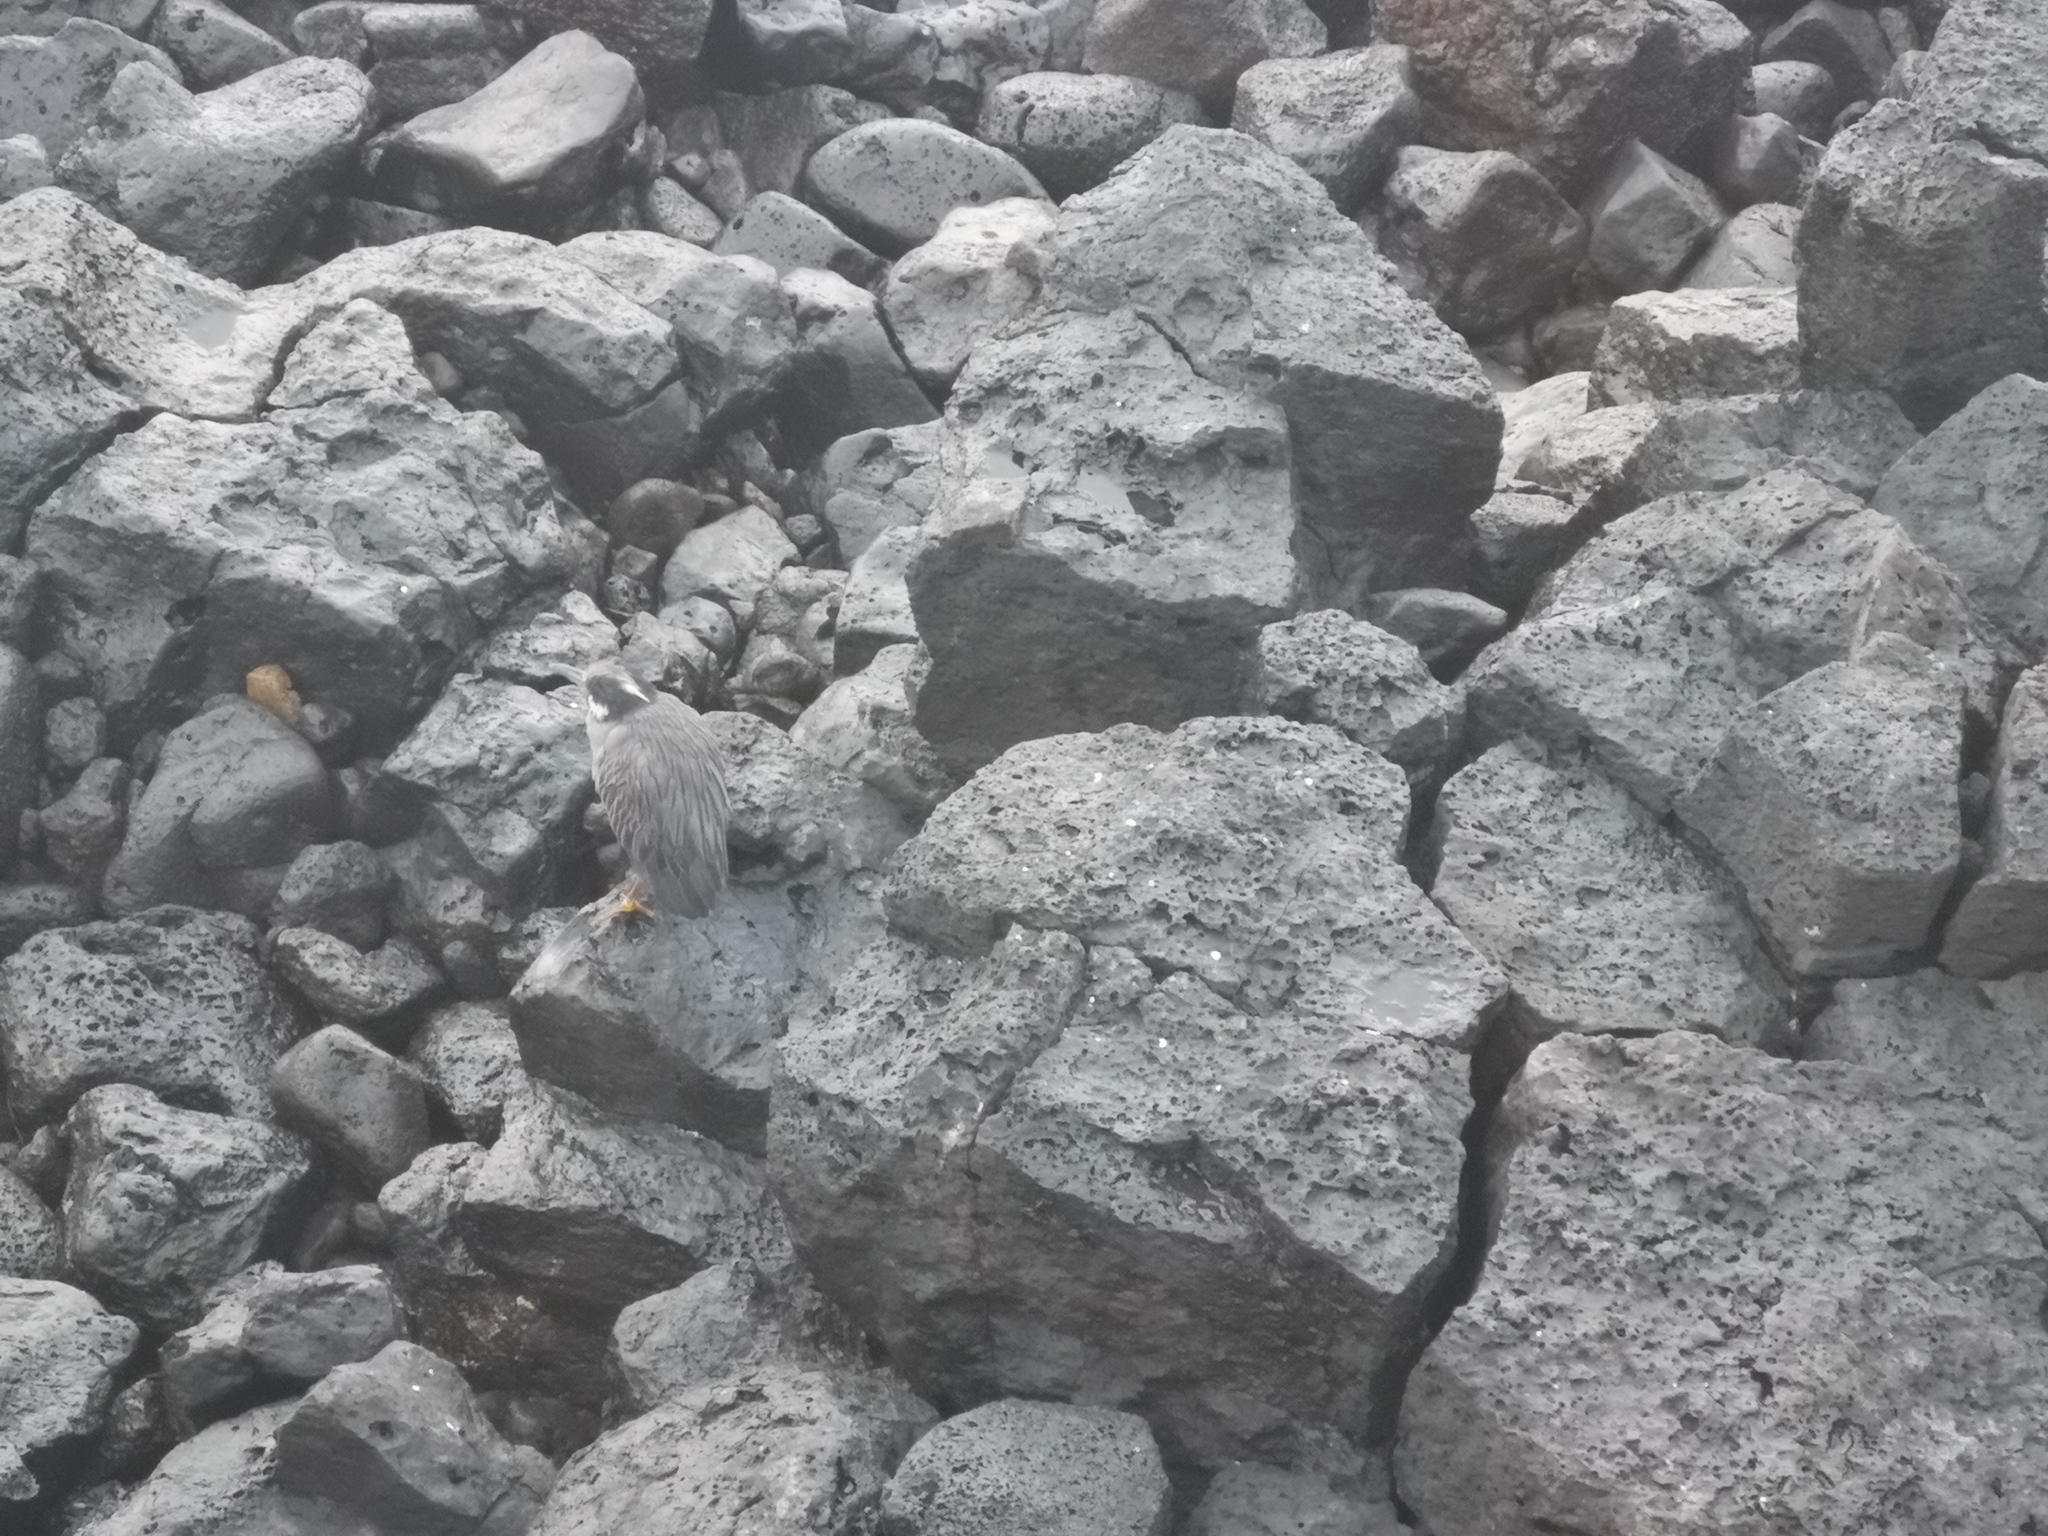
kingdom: Animalia
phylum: Chordata
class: Aves
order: Pelecaniformes
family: Ardeidae
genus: Nyctanassa
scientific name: Nyctanassa violacea
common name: Yellow-crowned night heron
